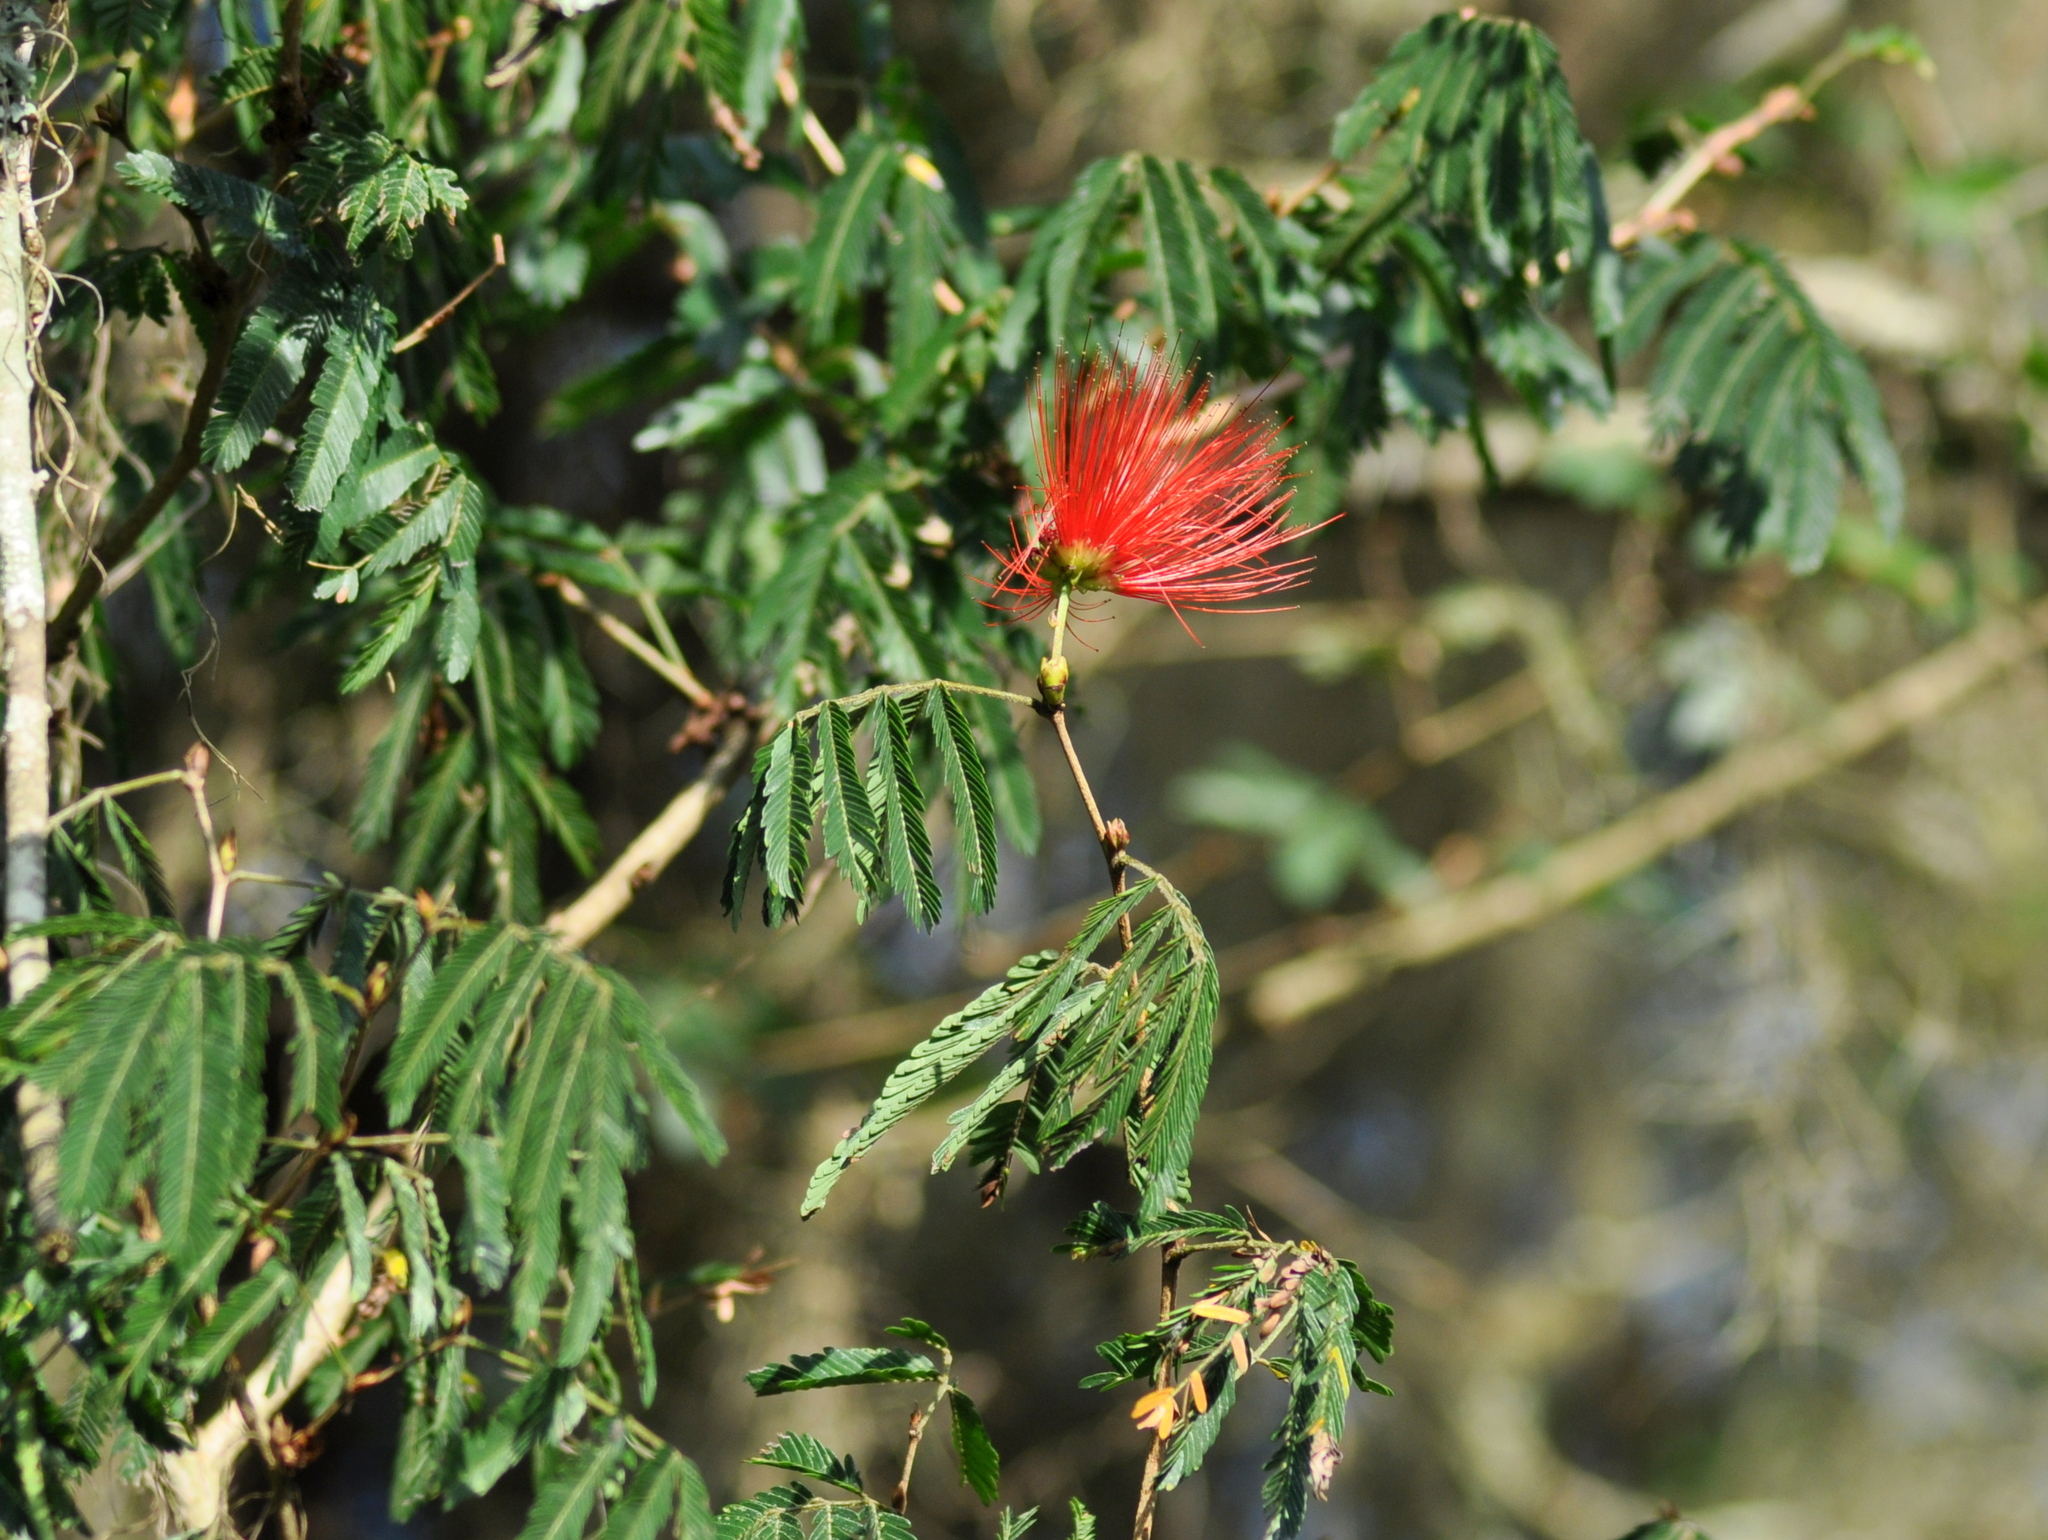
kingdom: Plantae
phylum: Tracheophyta
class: Magnoliopsida
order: Fabales
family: Fabaceae
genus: Calliandra
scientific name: Calliandra tweediei
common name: Mexican flamebush
